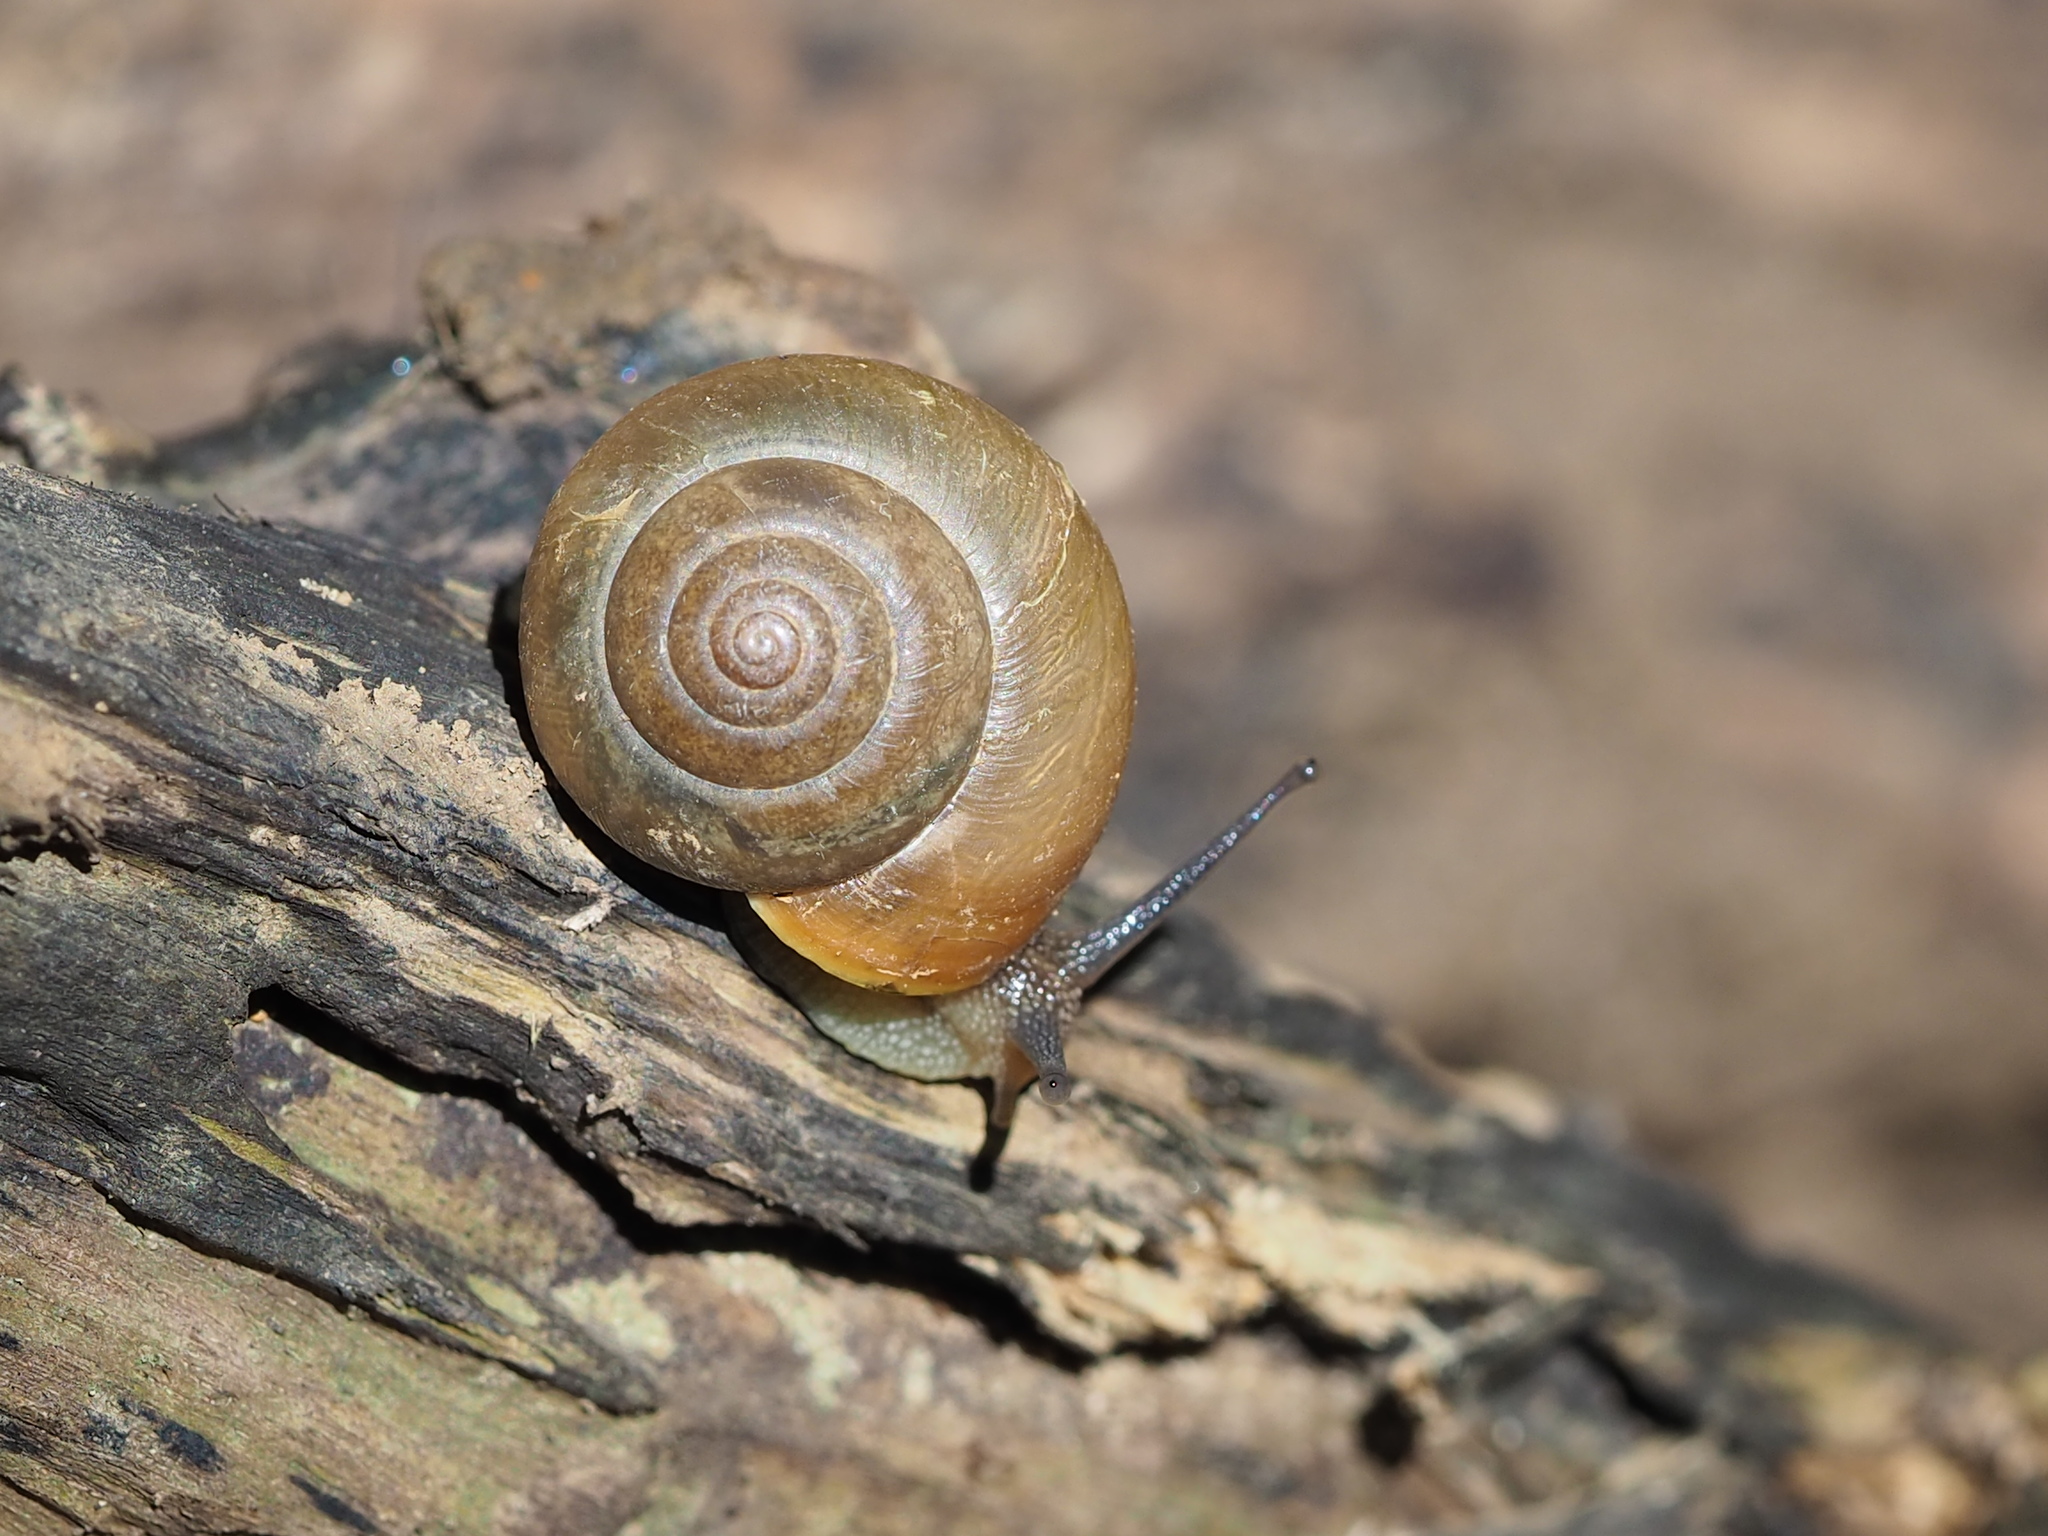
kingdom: Animalia
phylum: Mollusca
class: Gastropoda
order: Stylommatophora
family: Camaenidae
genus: Acusta
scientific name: Acusta toyenmongaiensis
